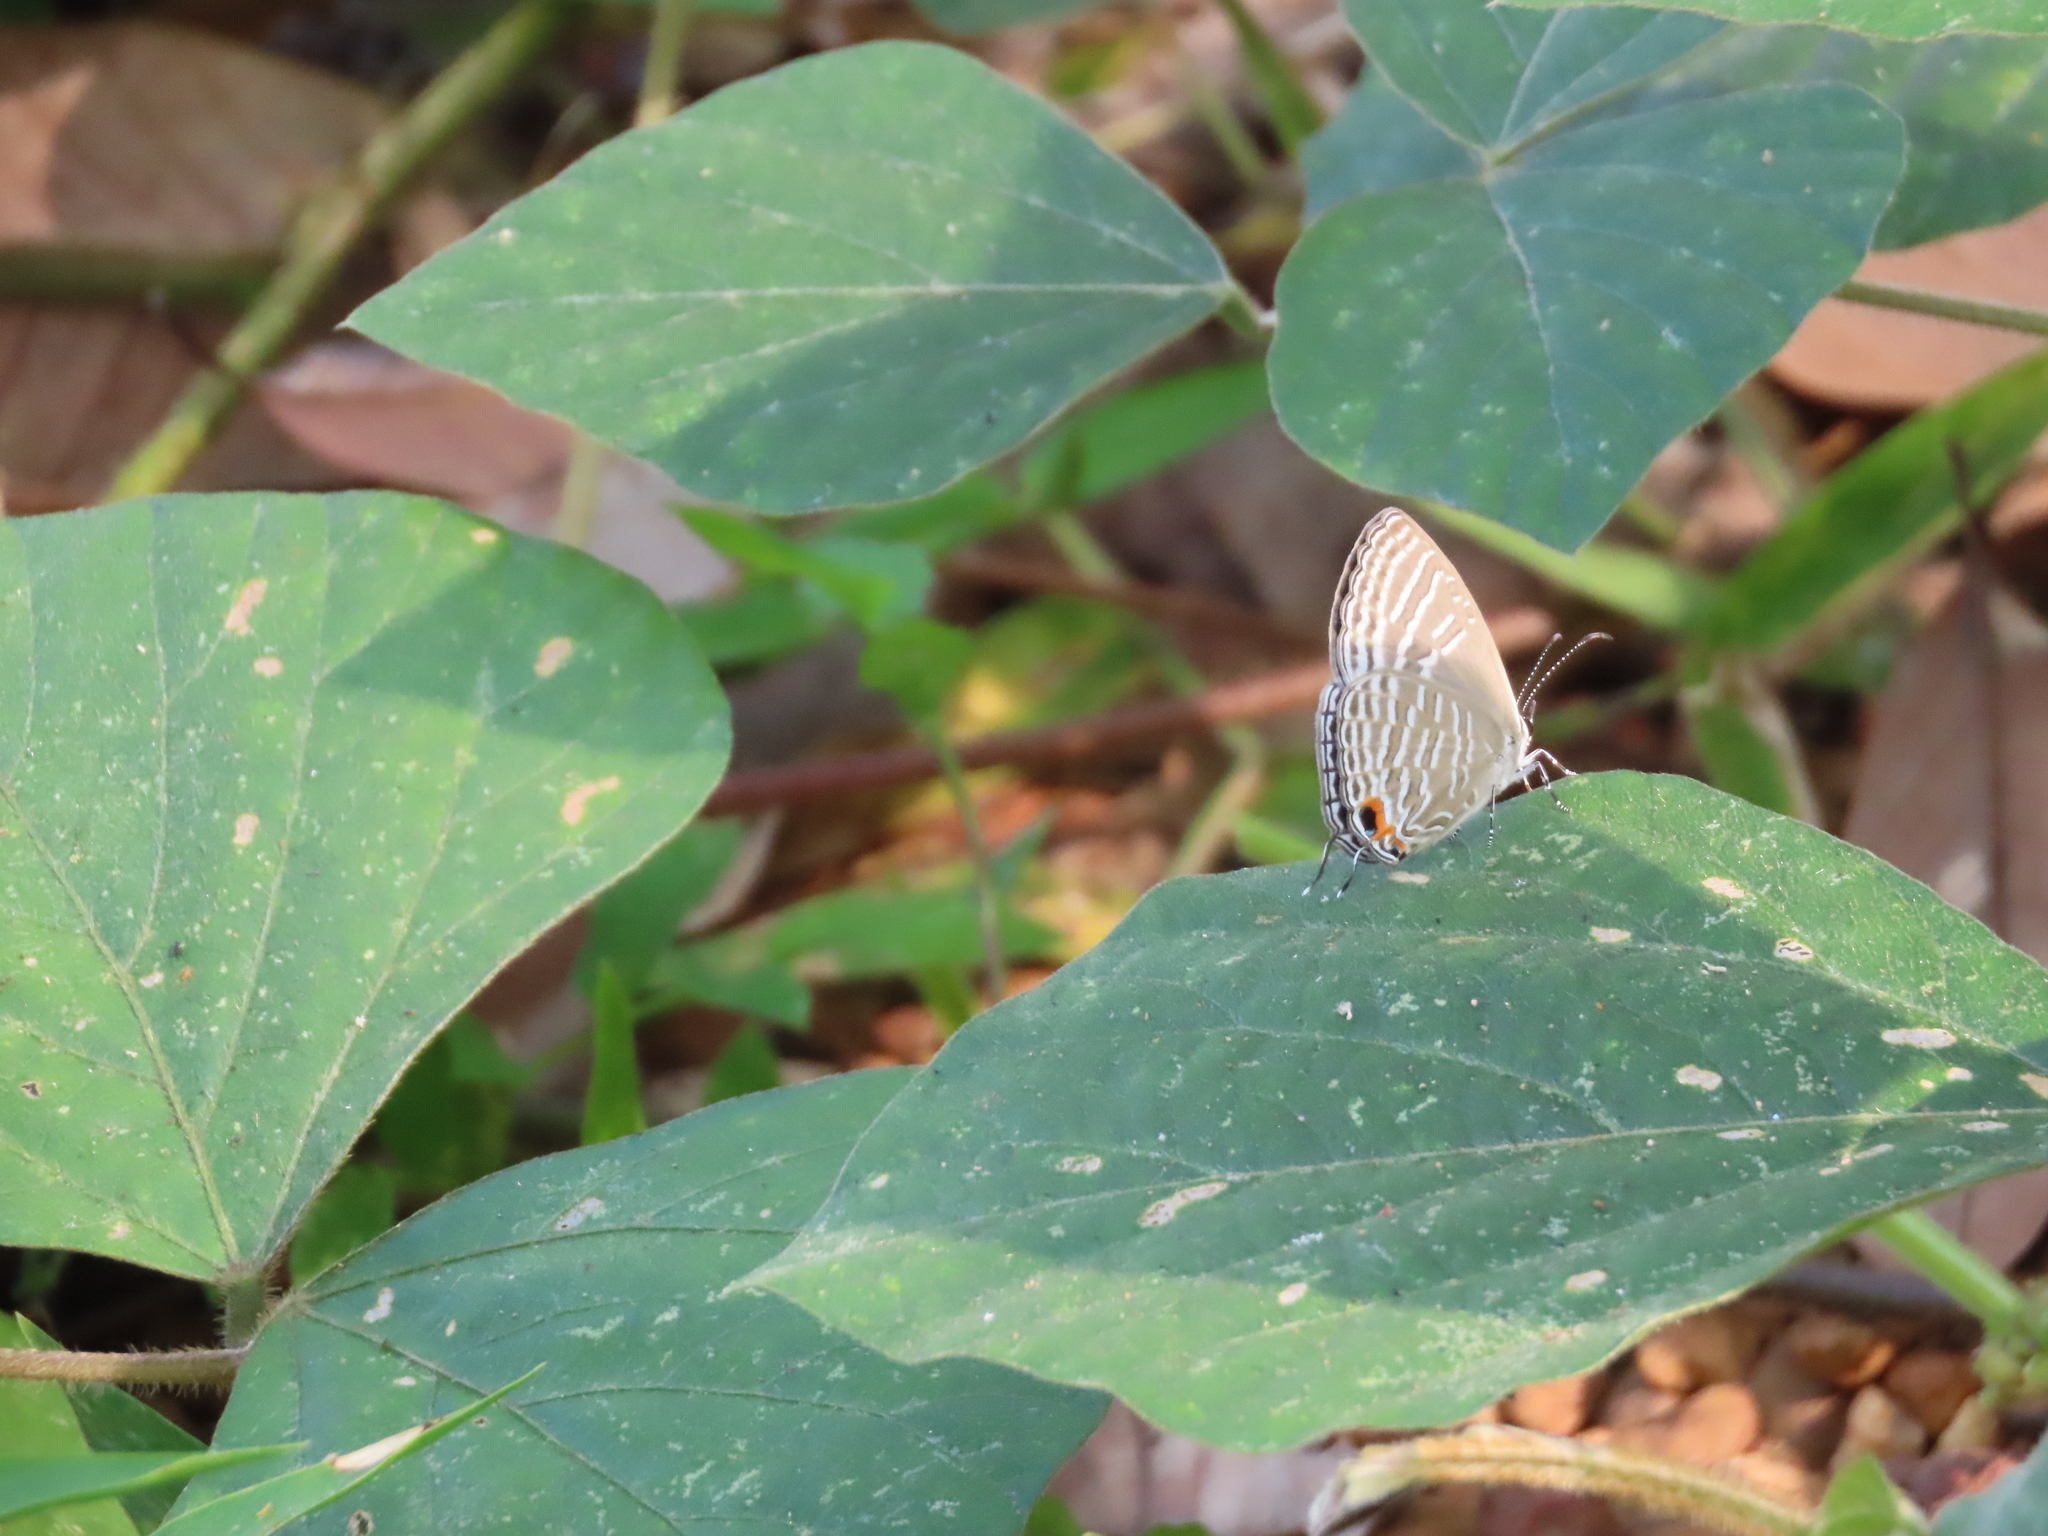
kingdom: Animalia
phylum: Arthropoda
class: Insecta
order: Lepidoptera
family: Lycaenidae
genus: Jamides
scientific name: Jamides celeno
